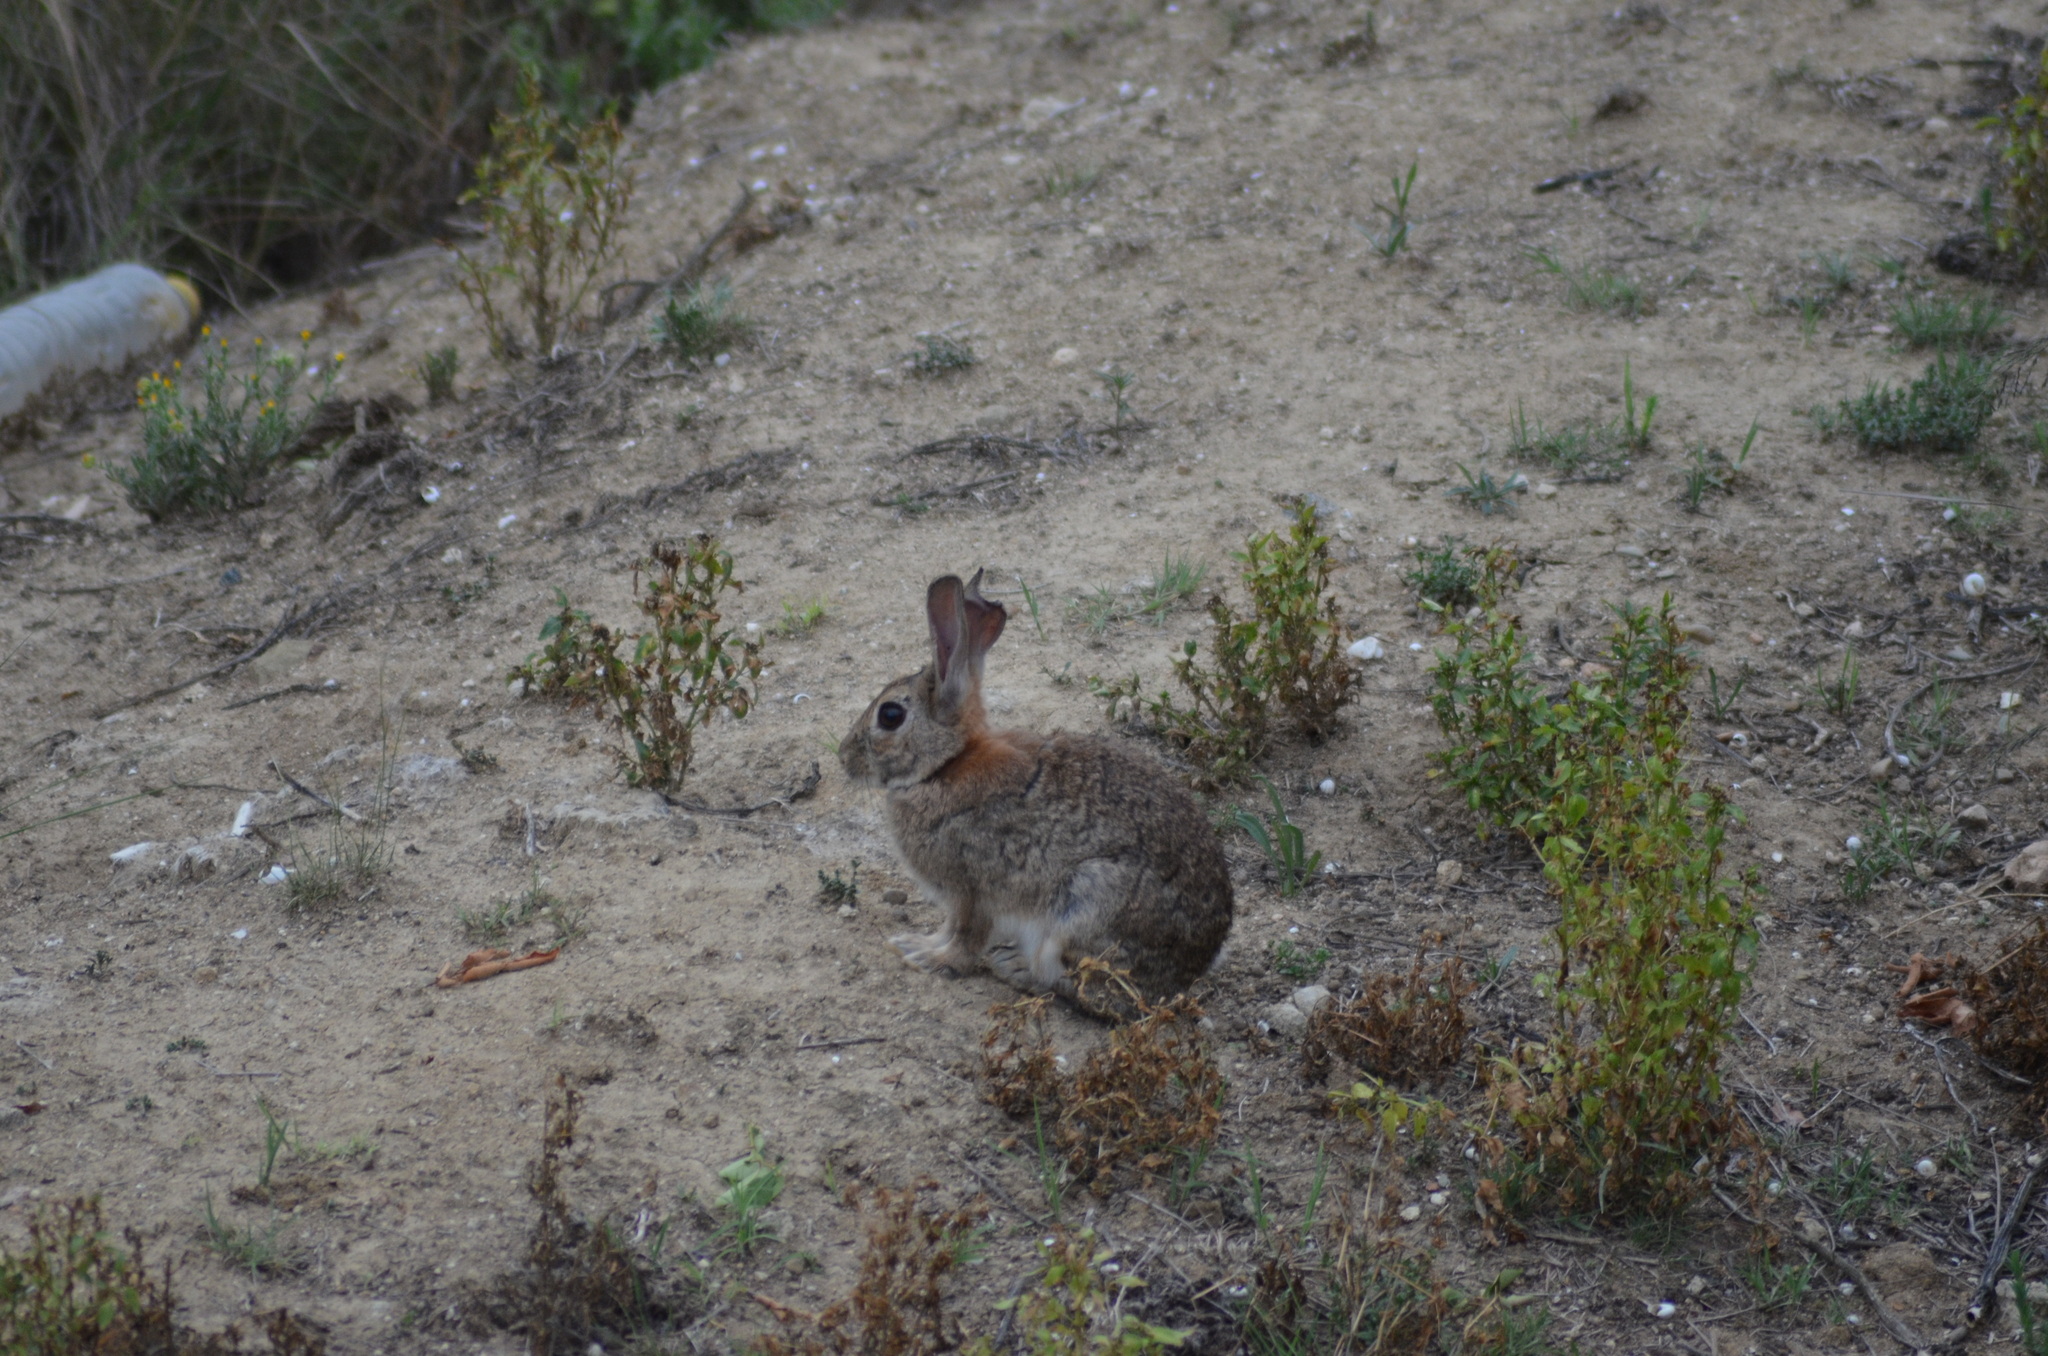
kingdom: Animalia
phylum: Chordata
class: Mammalia
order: Lagomorpha
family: Leporidae
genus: Oryctolagus
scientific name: Oryctolagus cuniculus
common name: European rabbit
